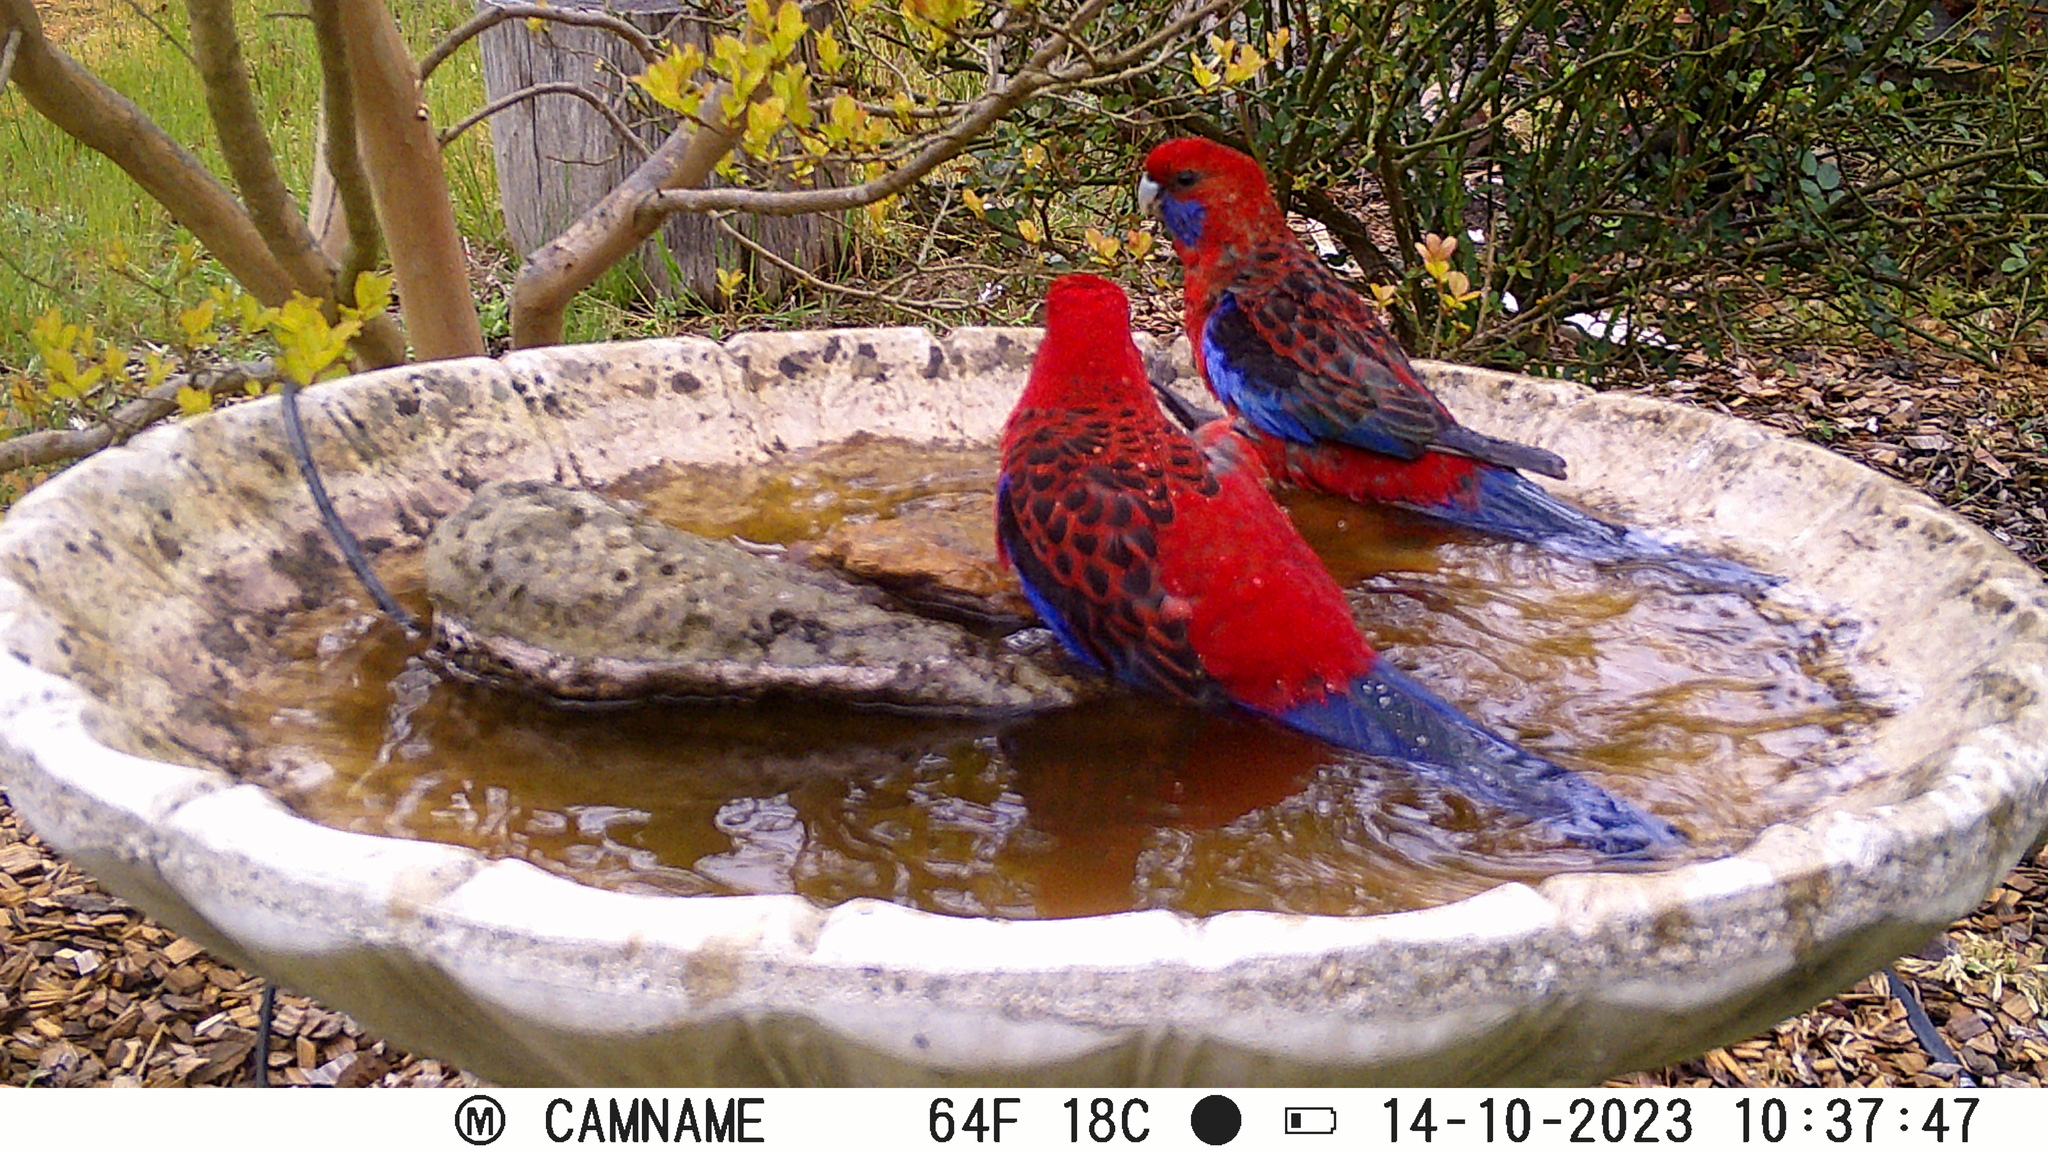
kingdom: Animalia
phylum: Chordata
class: Aves
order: Psittaciformes
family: Psittacidae
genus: Platycercus
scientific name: Platycercus elegans
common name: Crimson rosella
